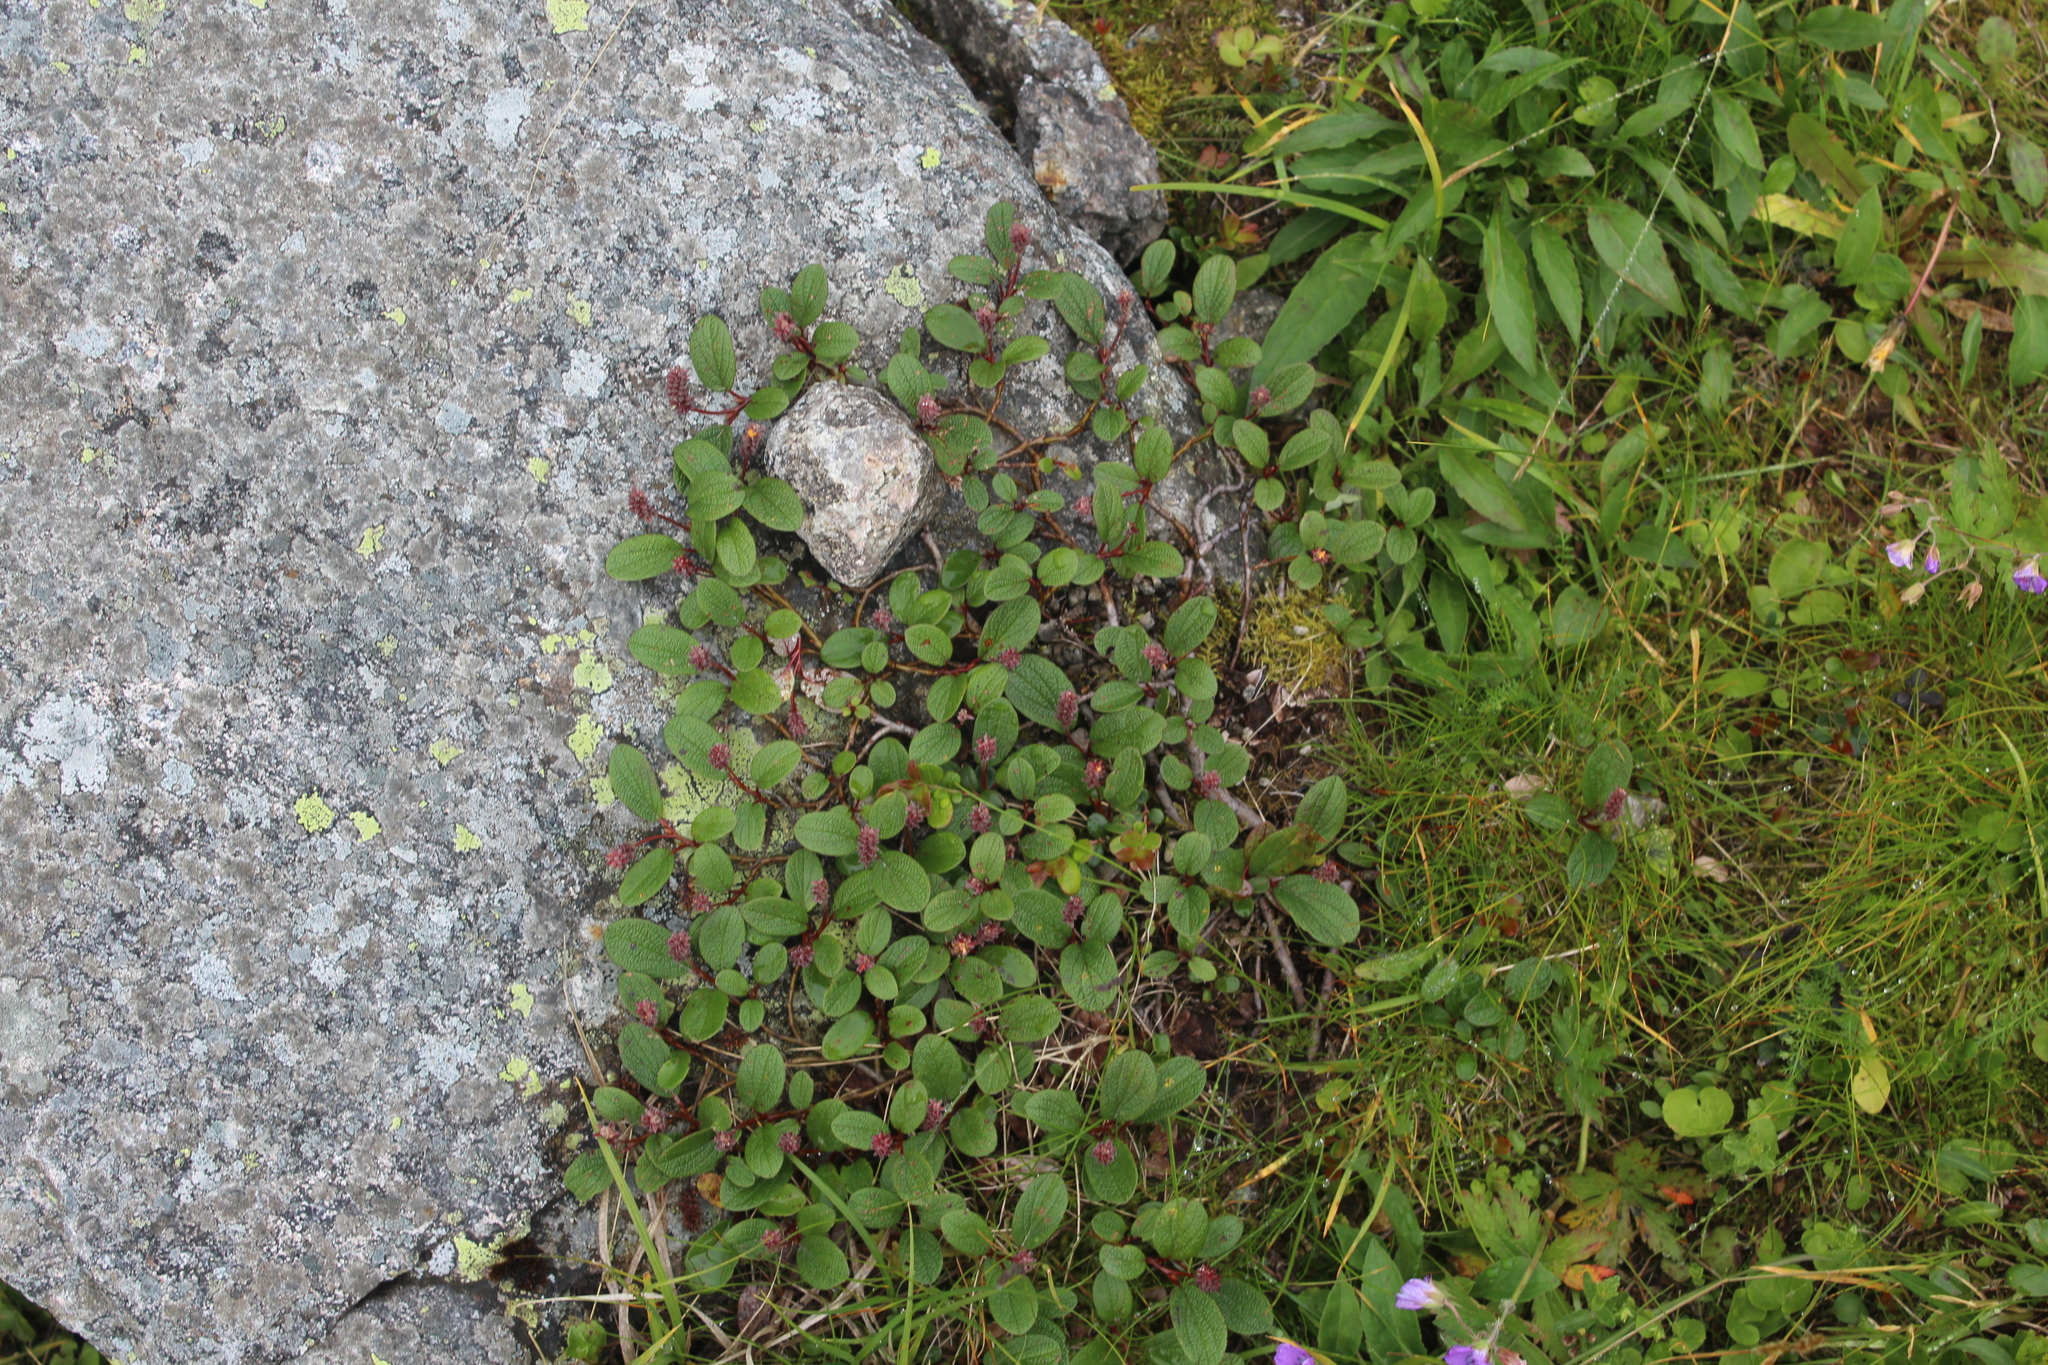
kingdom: Plantae
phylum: Tracheophyta
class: Magnoliopsida
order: Malpighiales
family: Salicaceae
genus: Salix
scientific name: Salix reticulata
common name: Net-leaved willow
